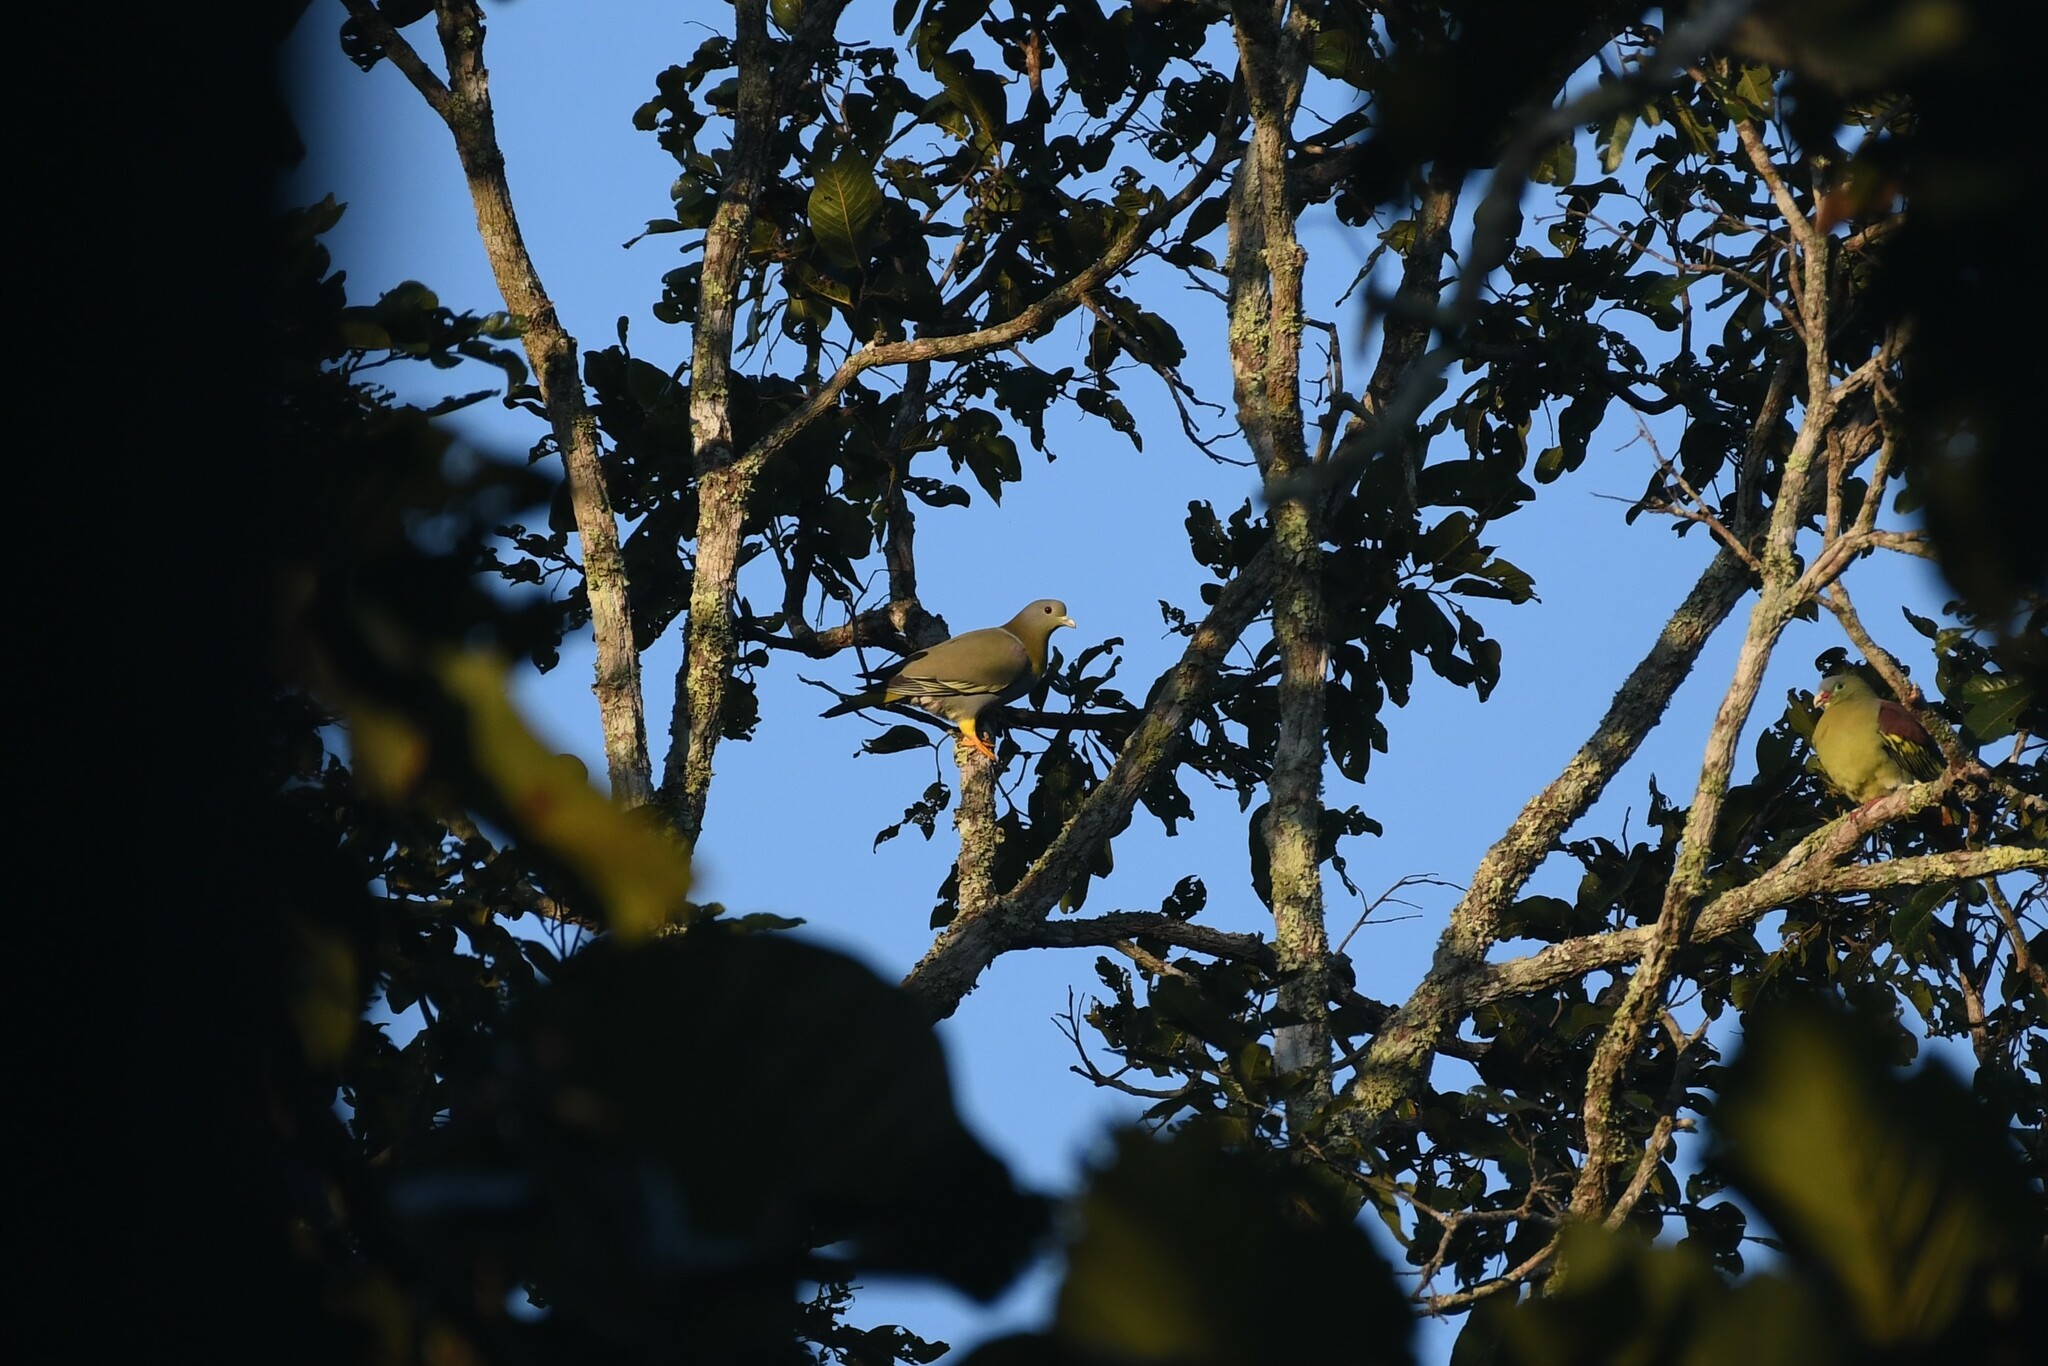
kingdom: Animalia
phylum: Chordata
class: Aves
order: Columbiformes
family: Columbidae
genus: Treron
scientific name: Treron phoenicopterus
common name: Yellow-footed green pigeon
